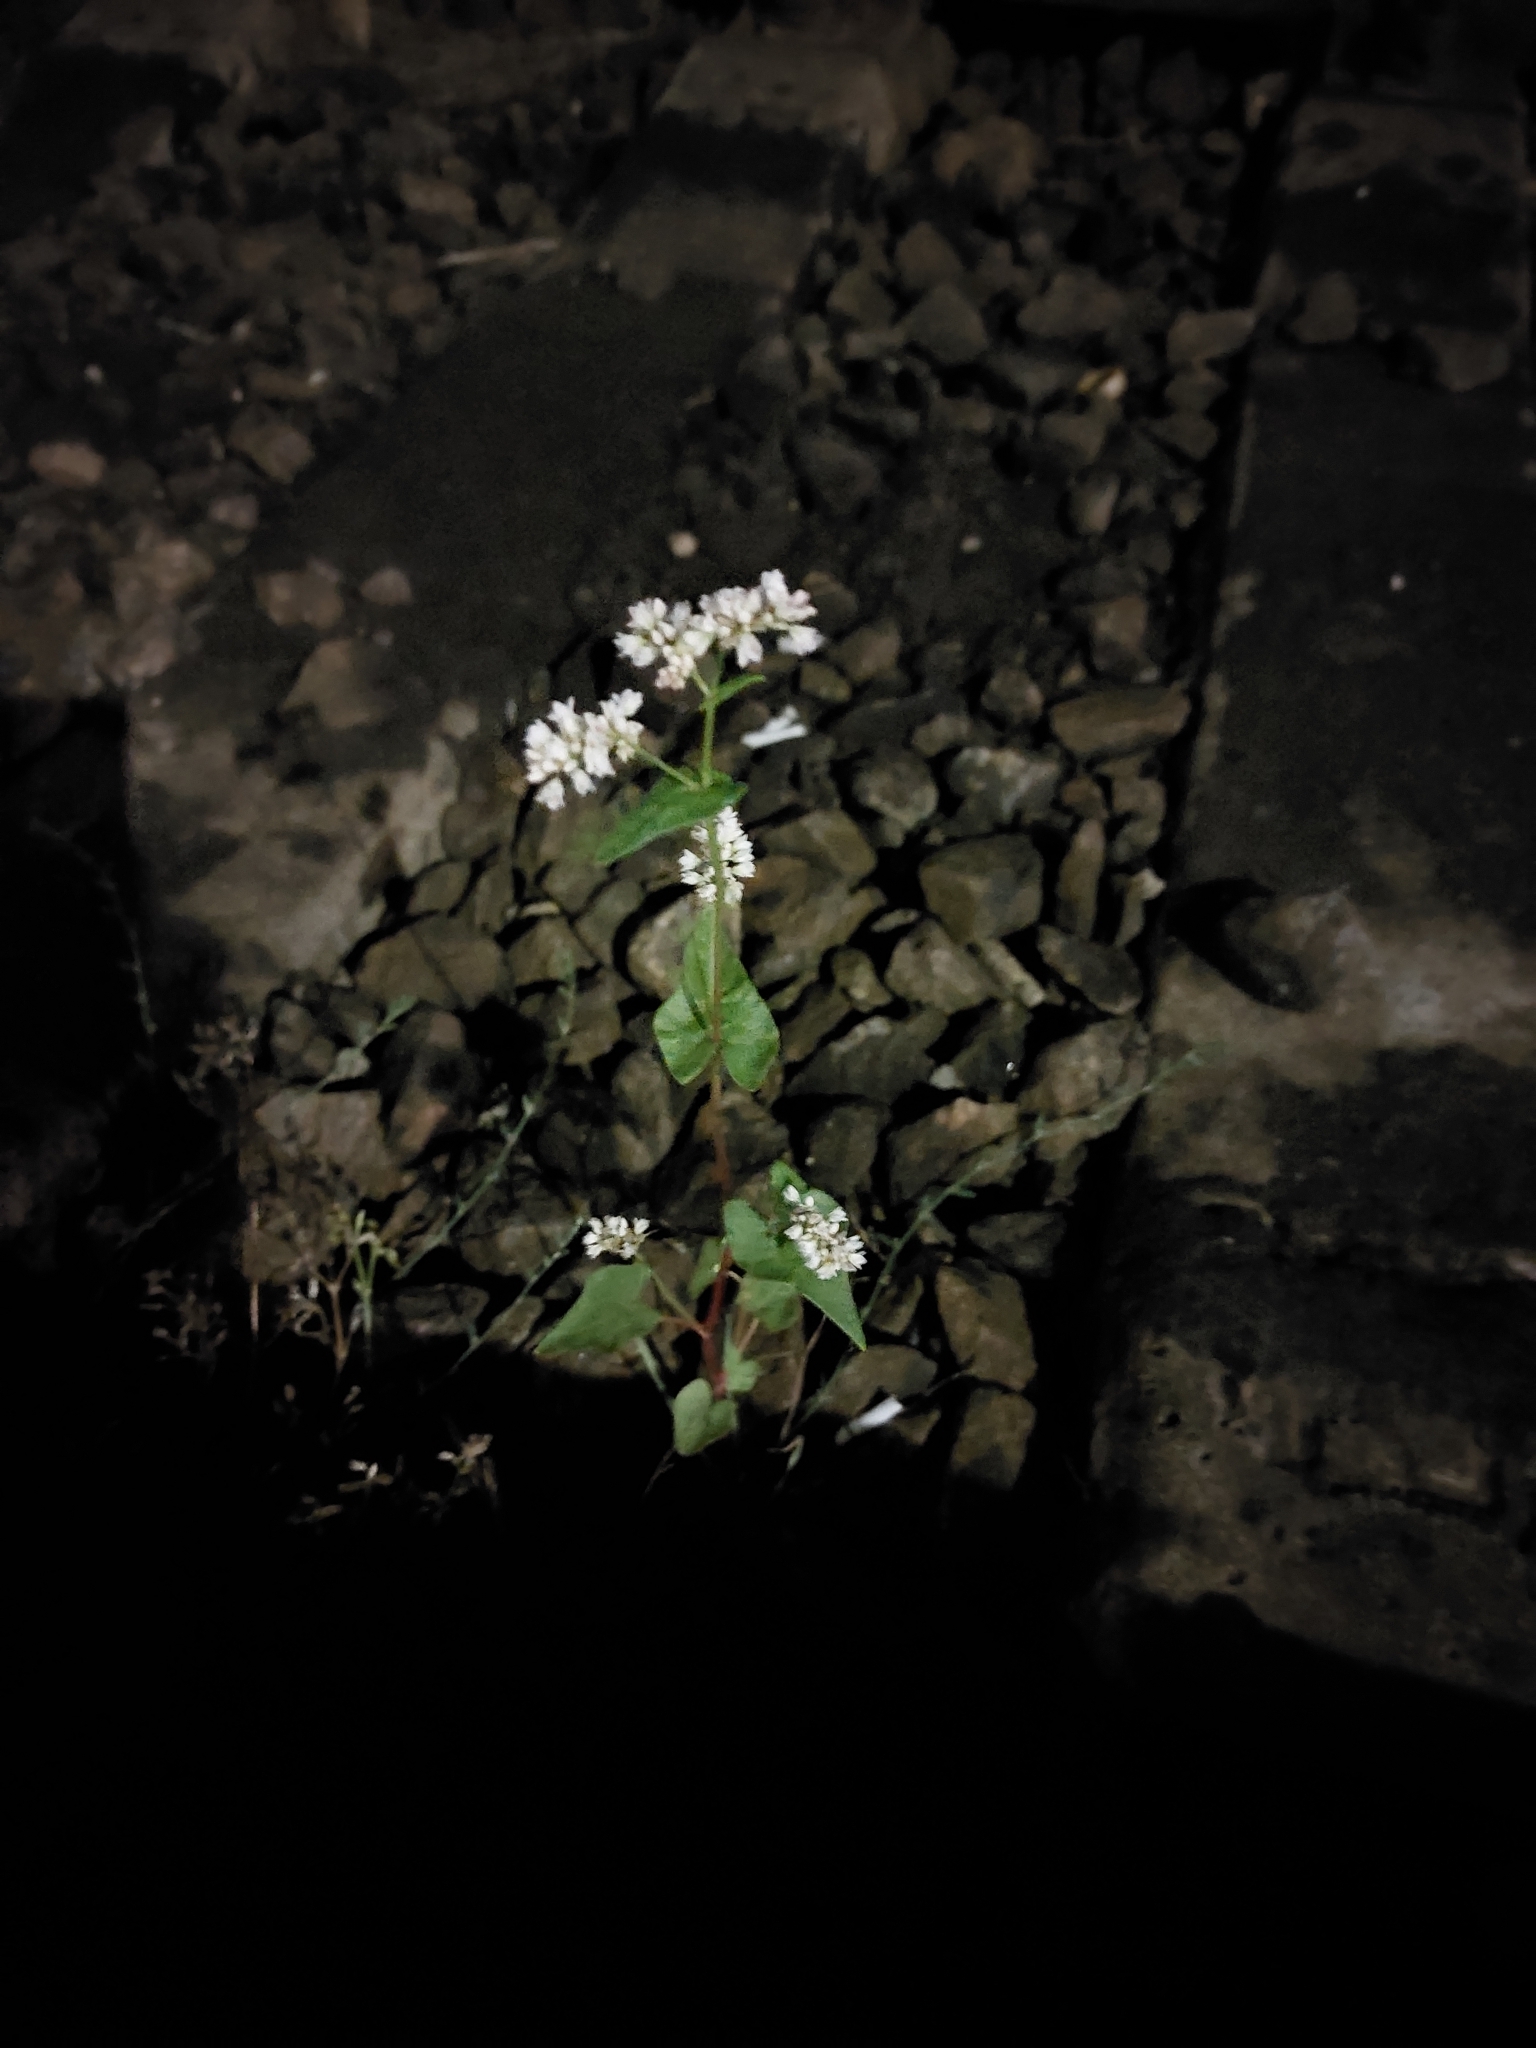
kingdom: Plantae
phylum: Tracheophyta
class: Magnoliopsida
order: Caryophyllales
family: Polygonaceae
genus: Fagopyrum
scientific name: Fagopyrum esculentum
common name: Buckwheat
